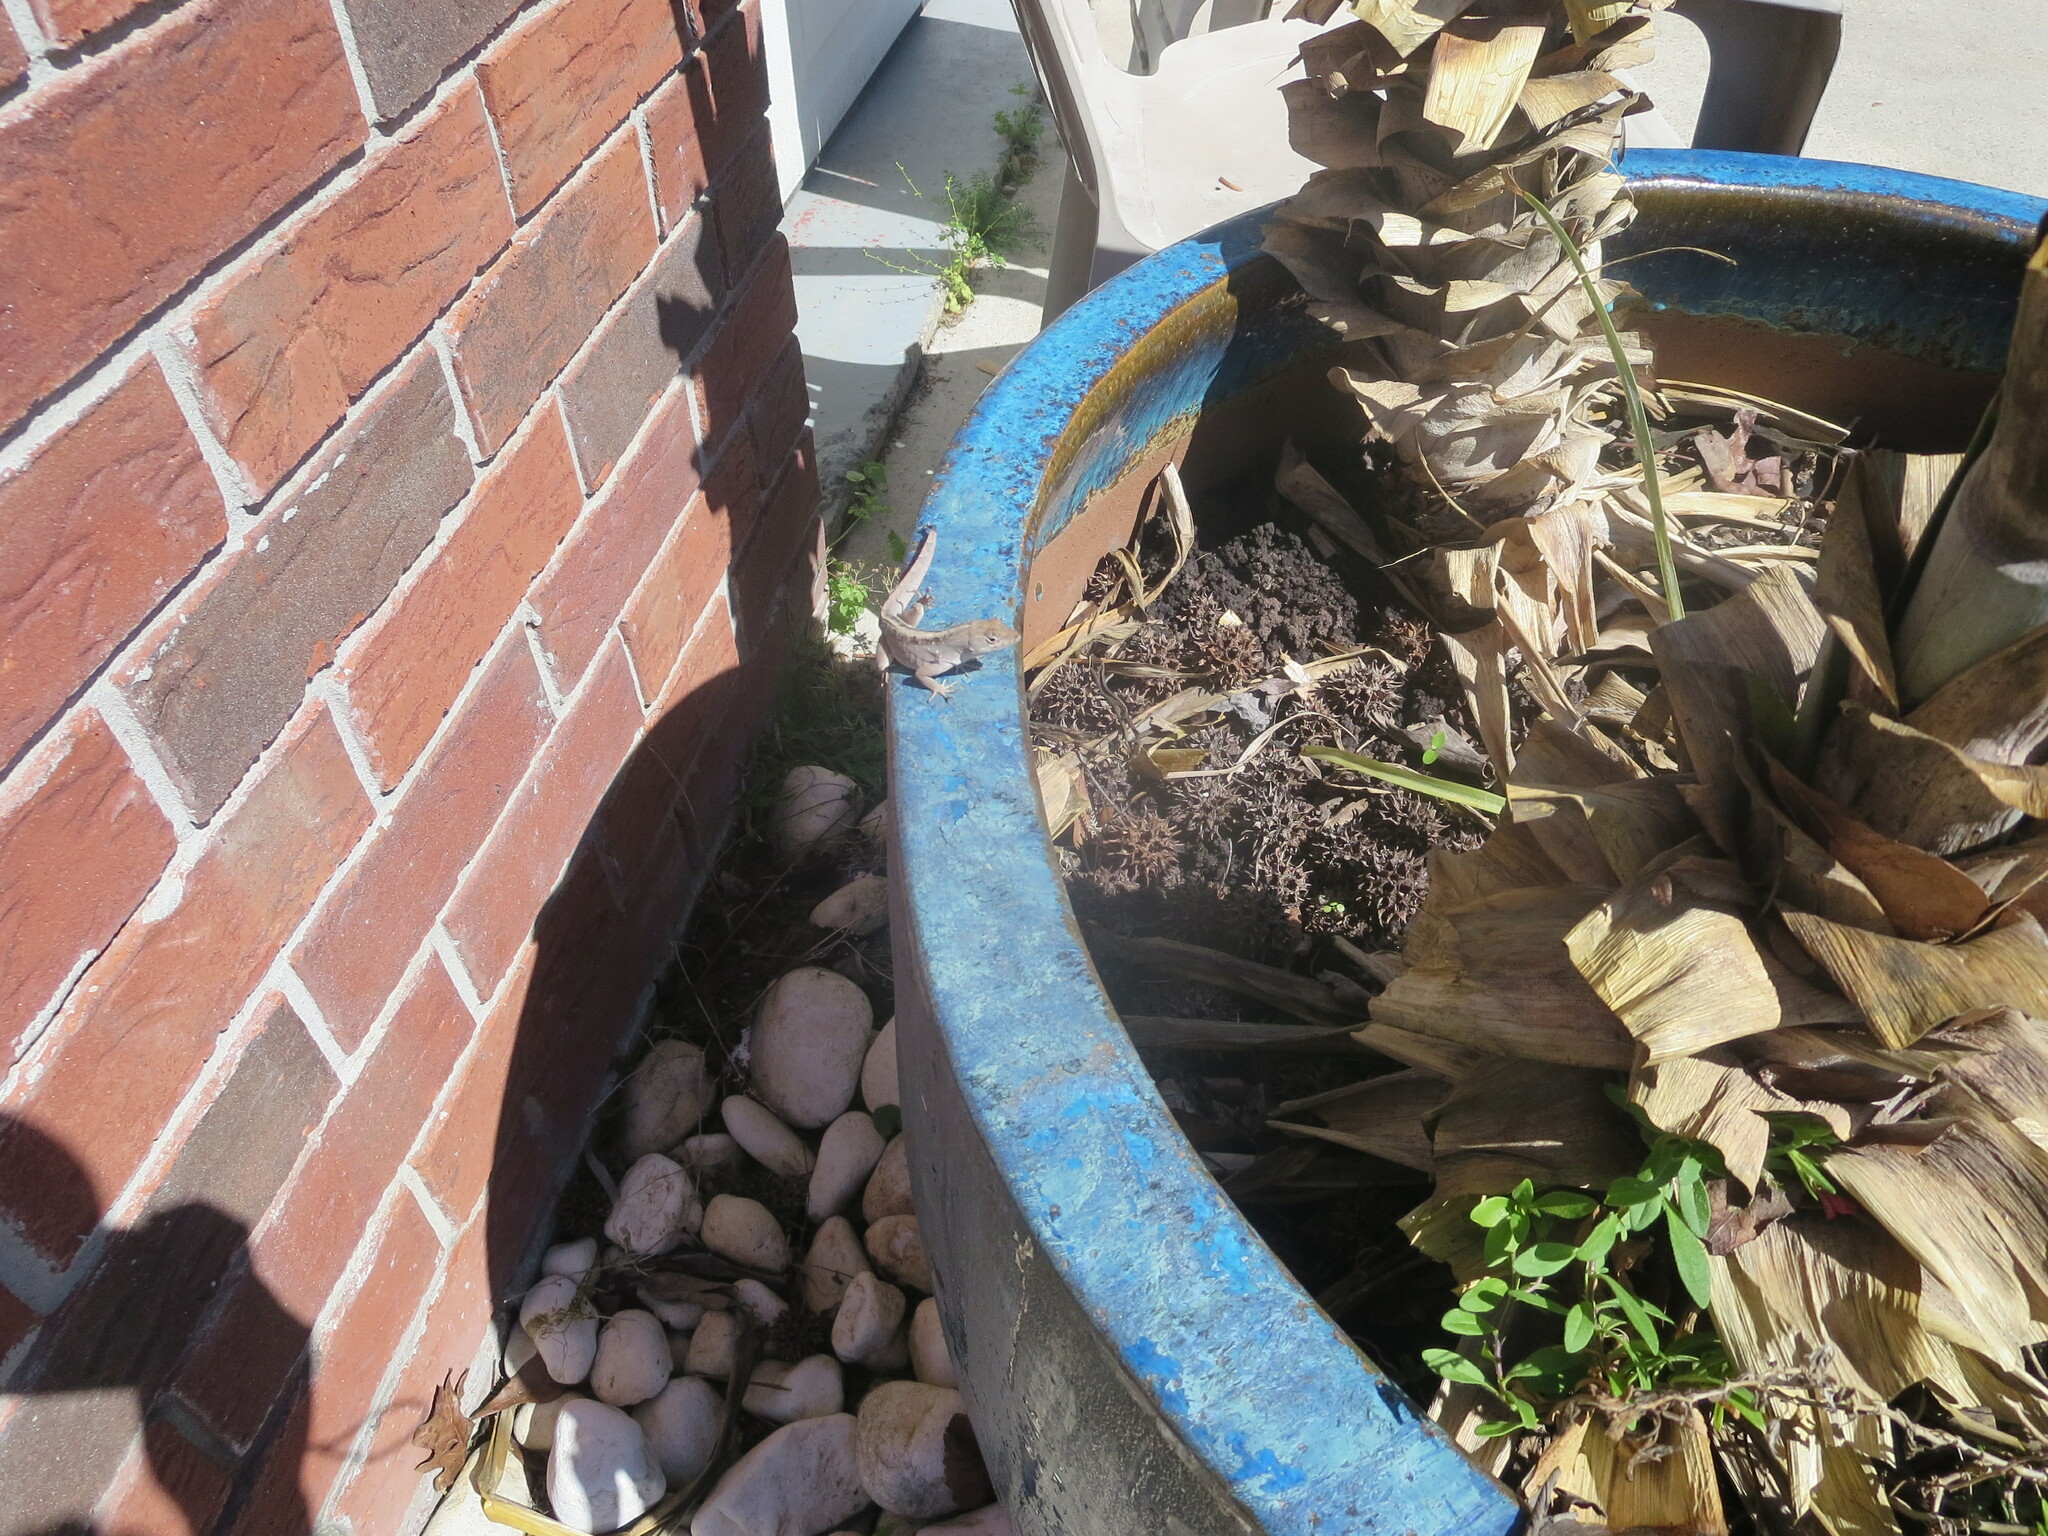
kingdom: Animalia
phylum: Chordata
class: Squamata
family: Dactyloidae
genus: Anolis
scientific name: Anolis sagrei
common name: Brown anole
